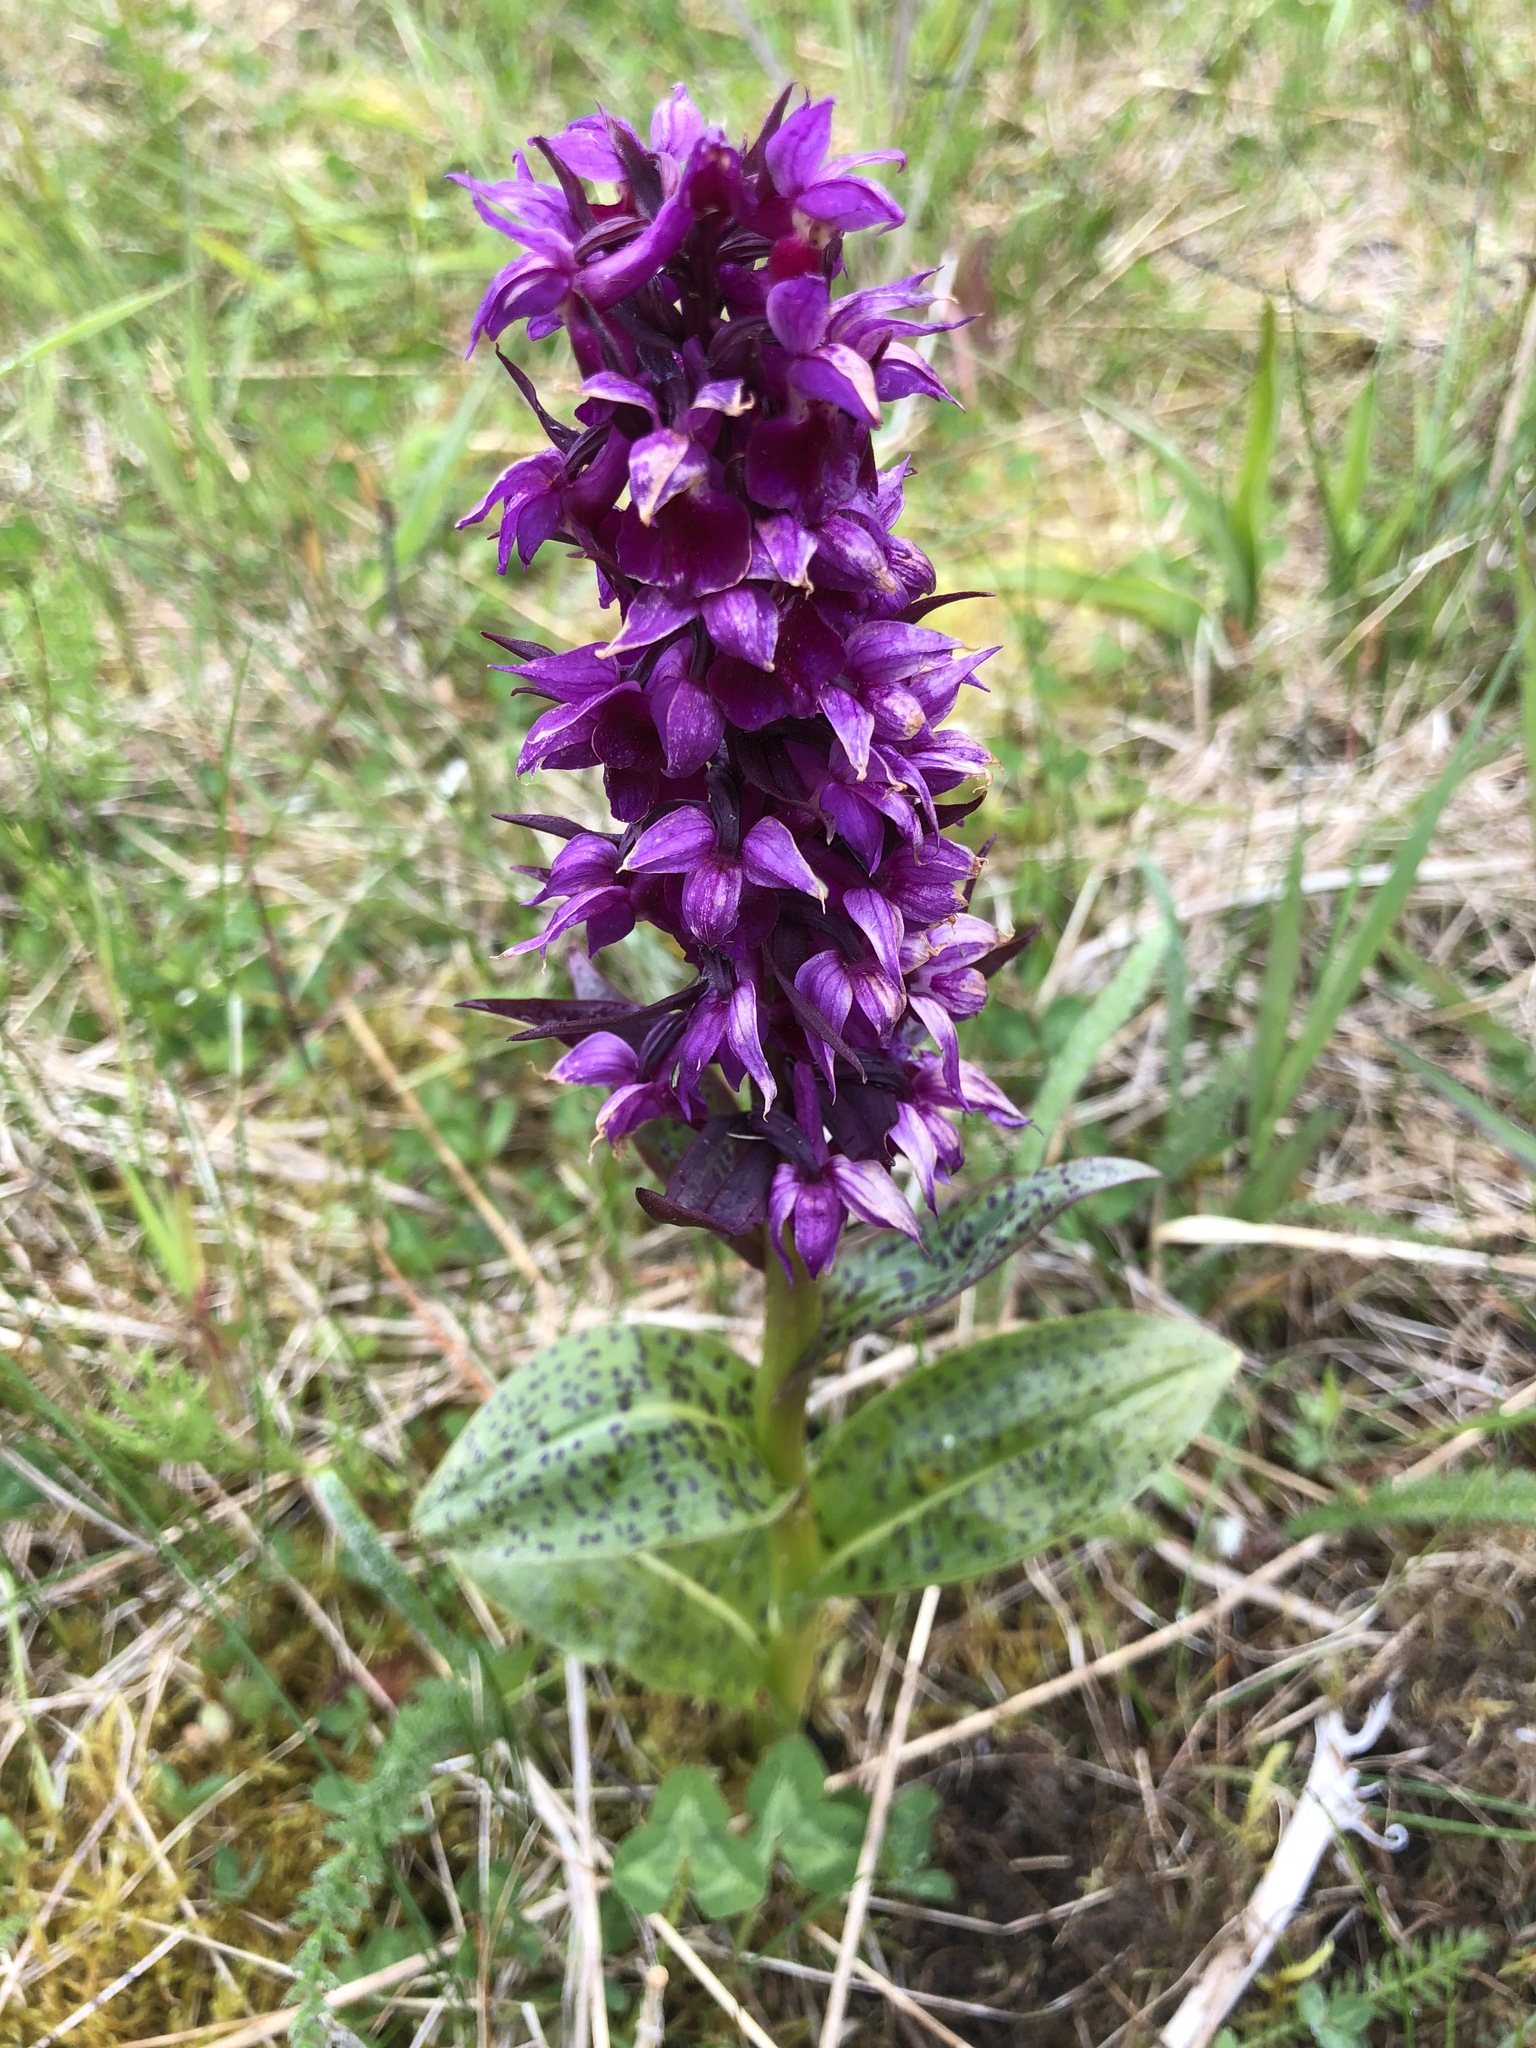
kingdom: Plantae
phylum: Tracheophyta
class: Liliopsida
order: Asparagales
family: Orchidaceae
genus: Dactylorhiza
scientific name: Dactylorhiza aristata
